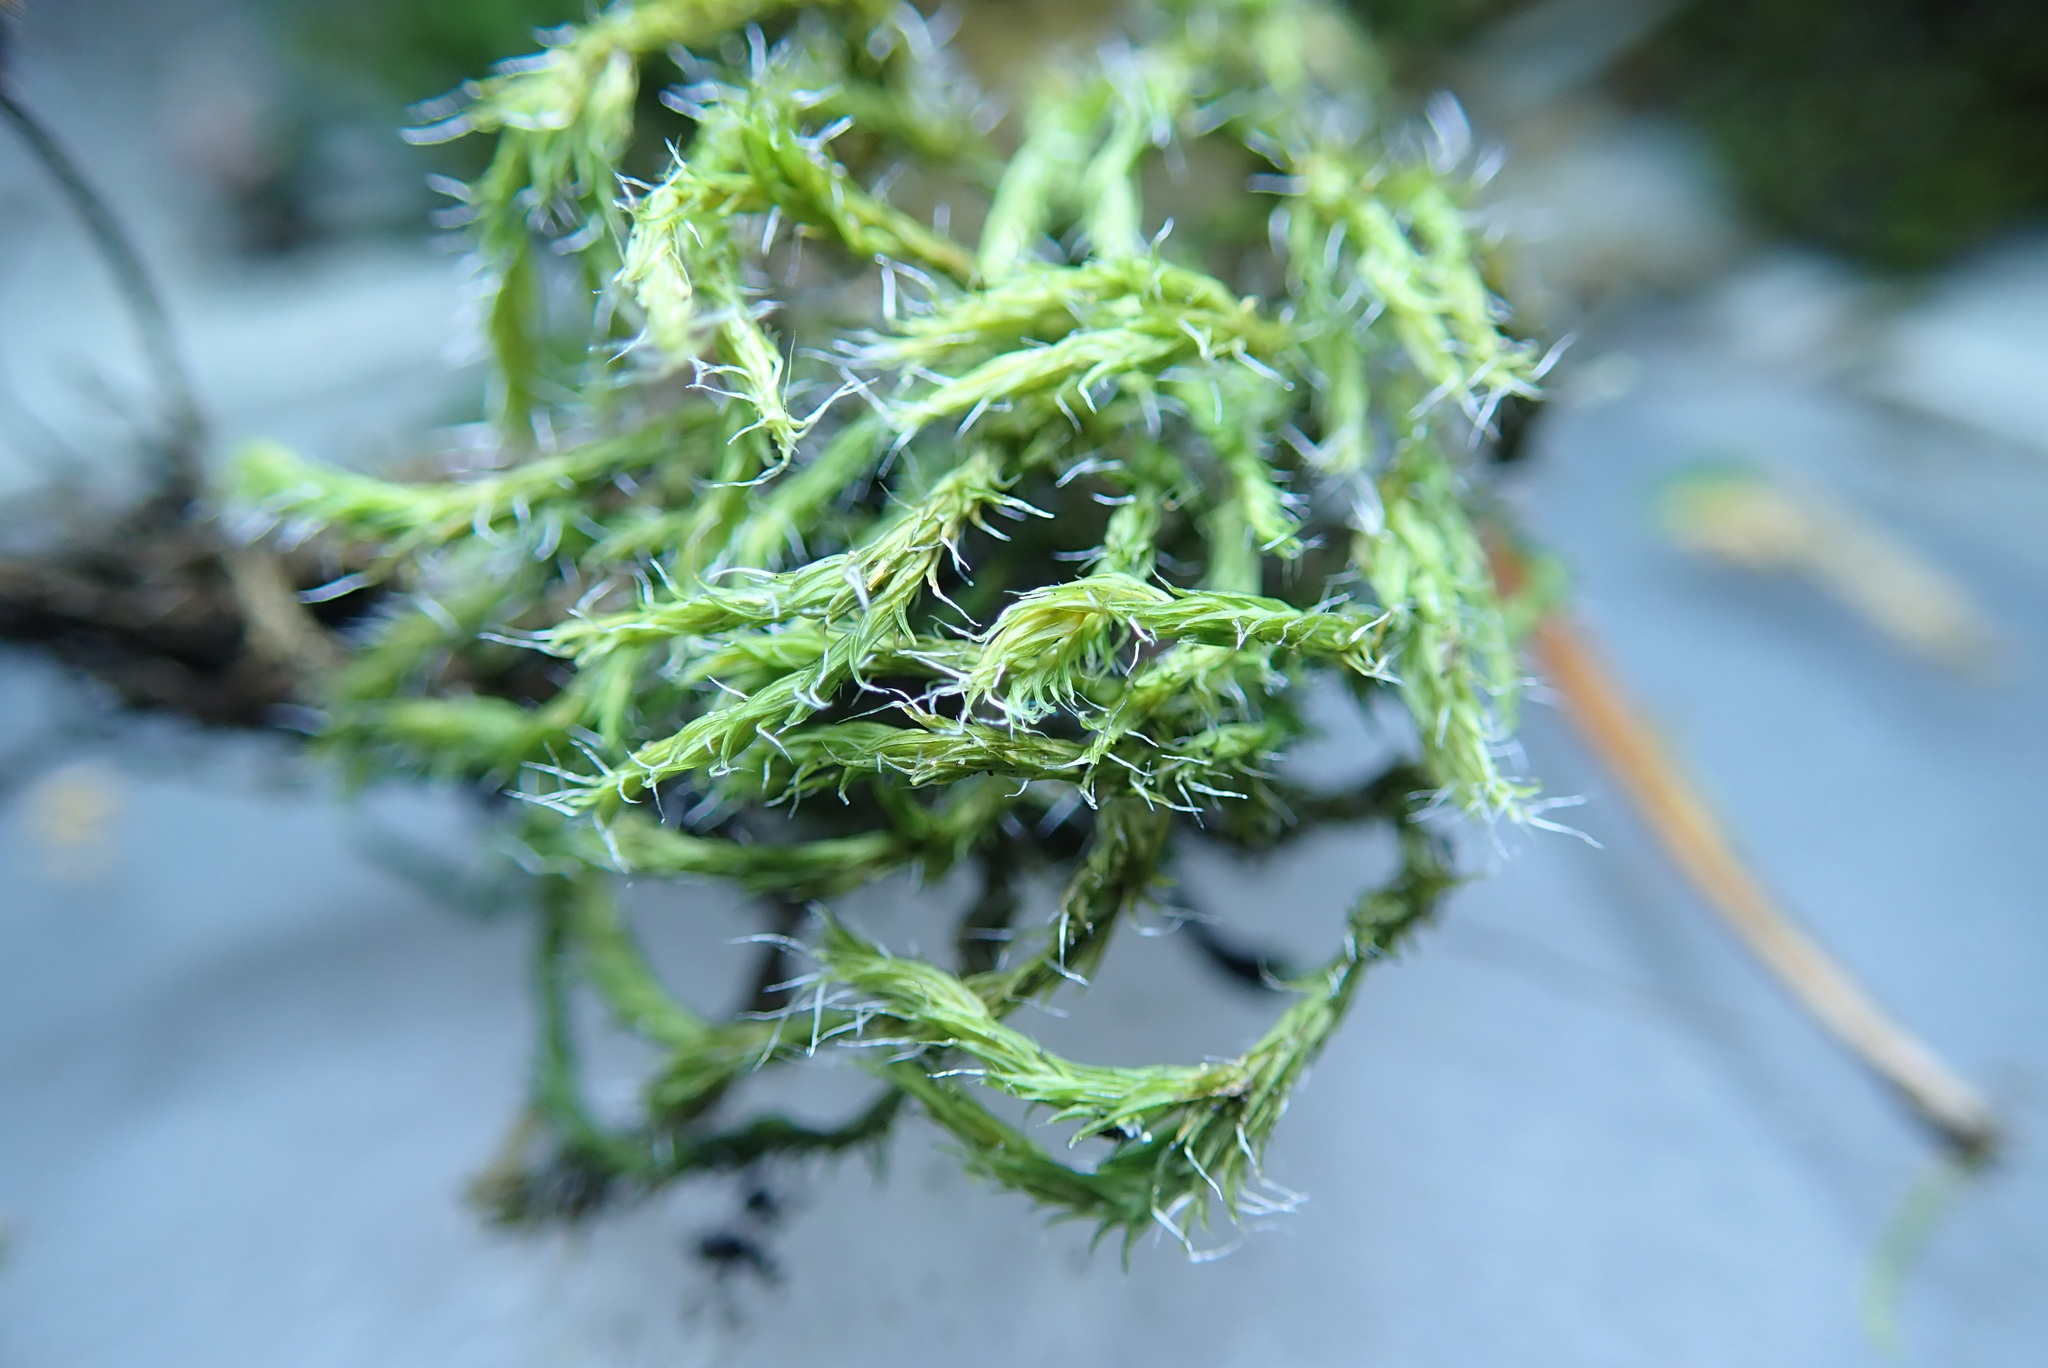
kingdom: Plantae
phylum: Bryophyta
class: Bryopsida
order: Grimmiales
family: Grimmiaceae
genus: Bucklandiella
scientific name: Bucklandiella lawtonae
